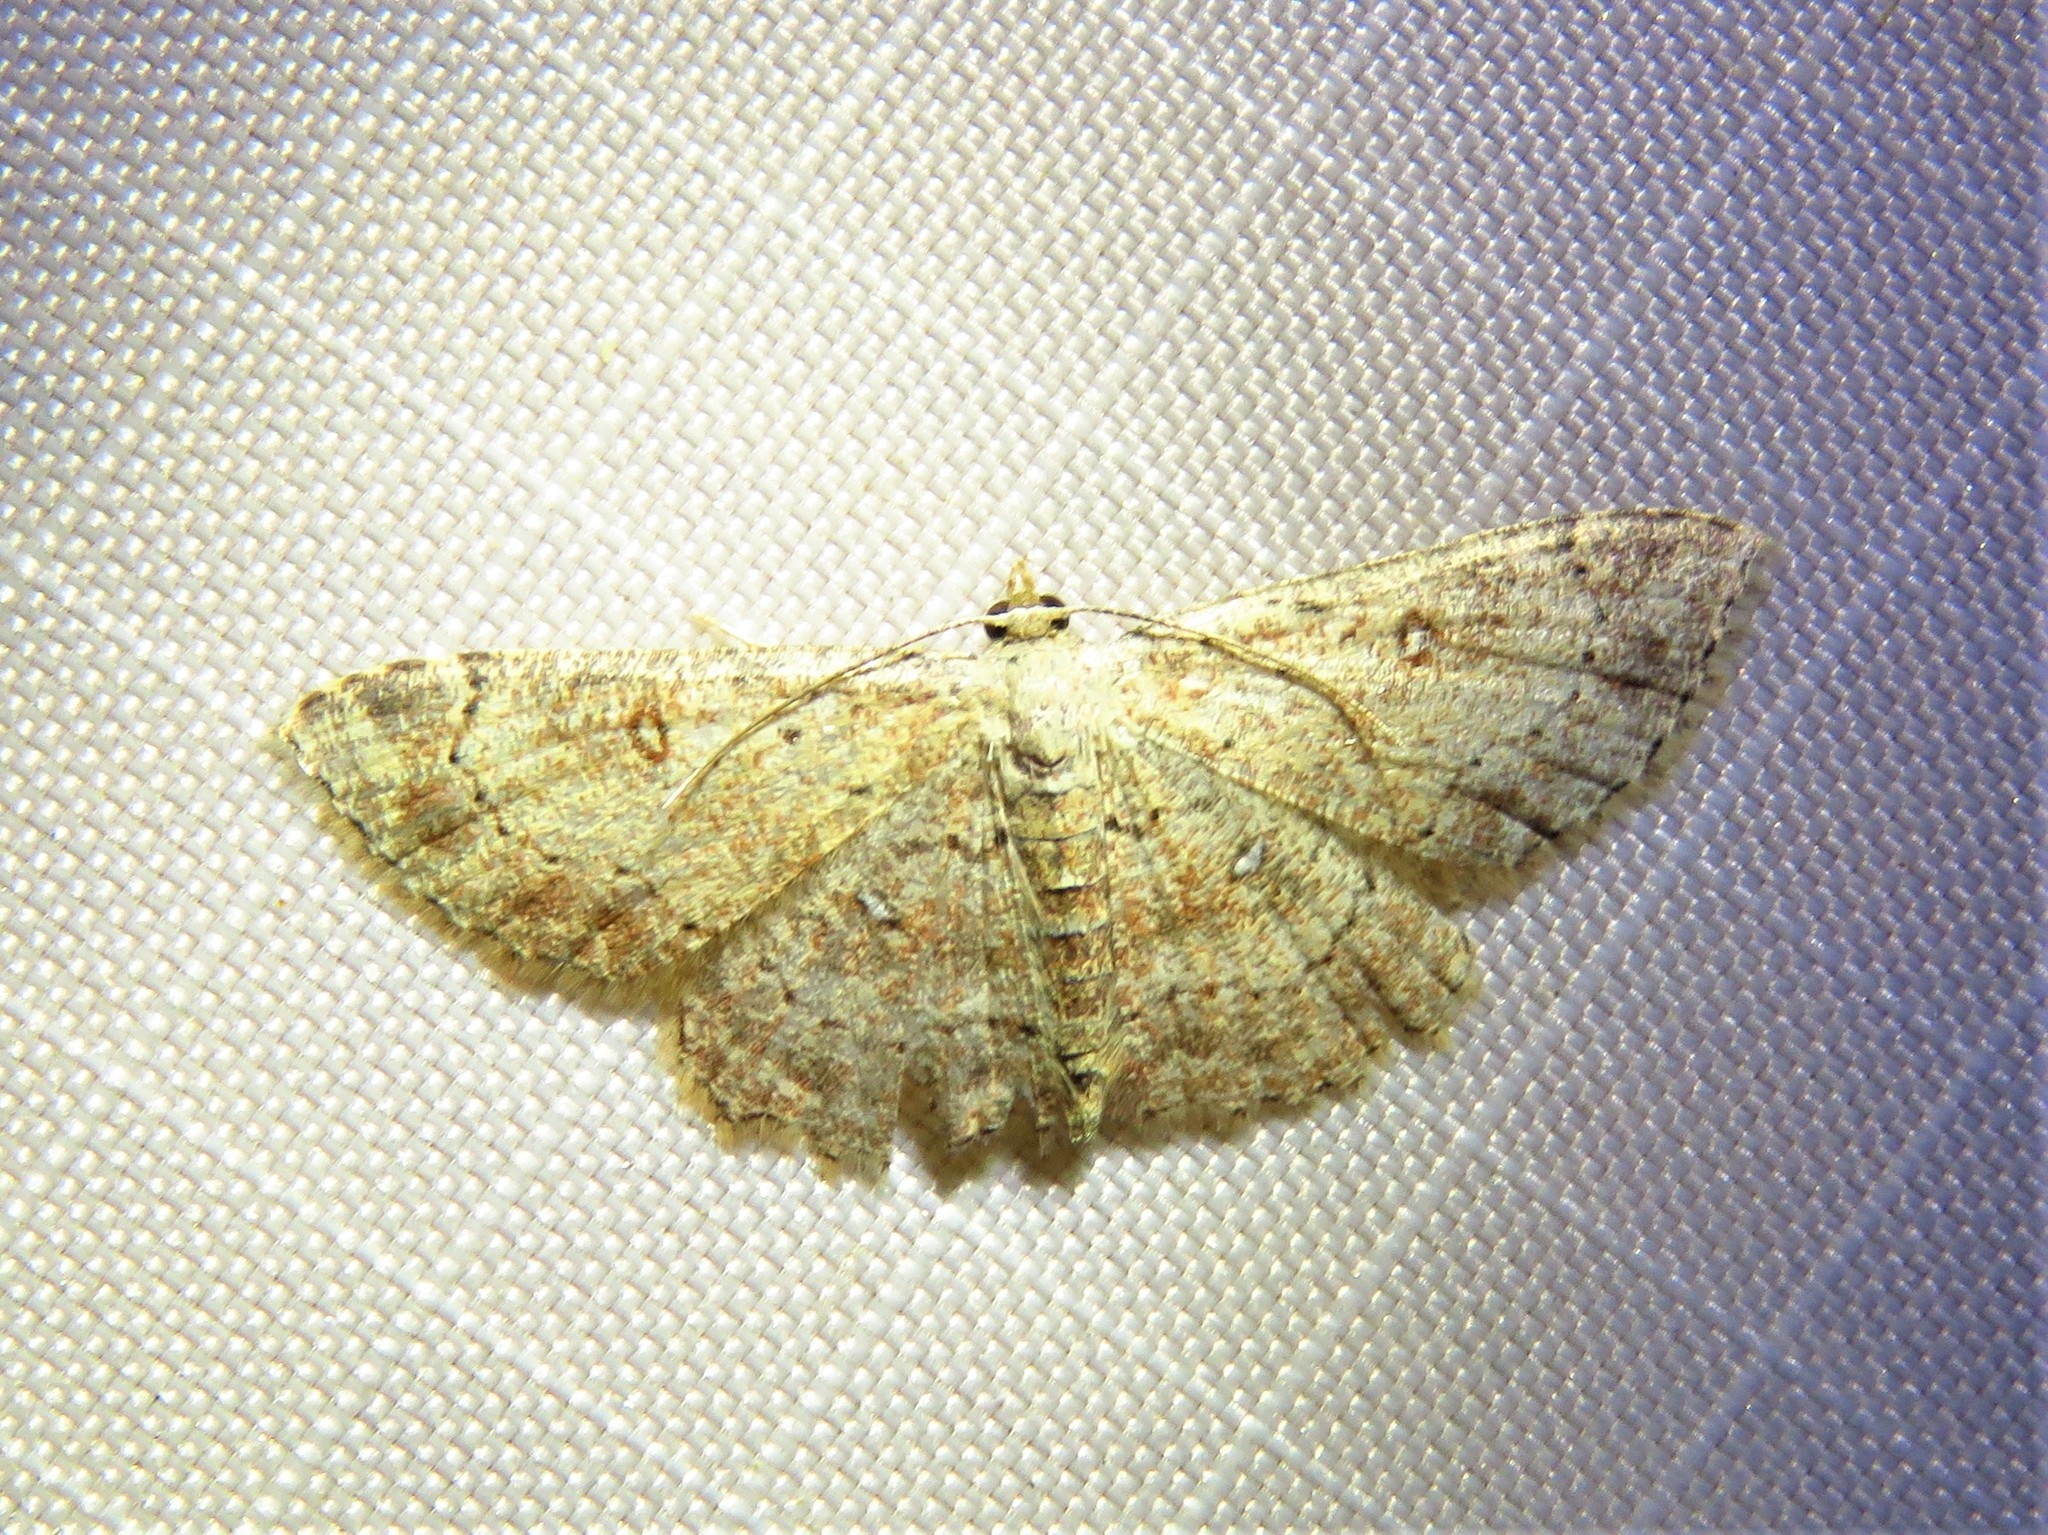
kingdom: Animalia
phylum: Arthropoda
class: Insecta
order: Lepidoptera
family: Geometridae
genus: Cyclophora
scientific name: Cyclophora nanaria
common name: Cankerworm
